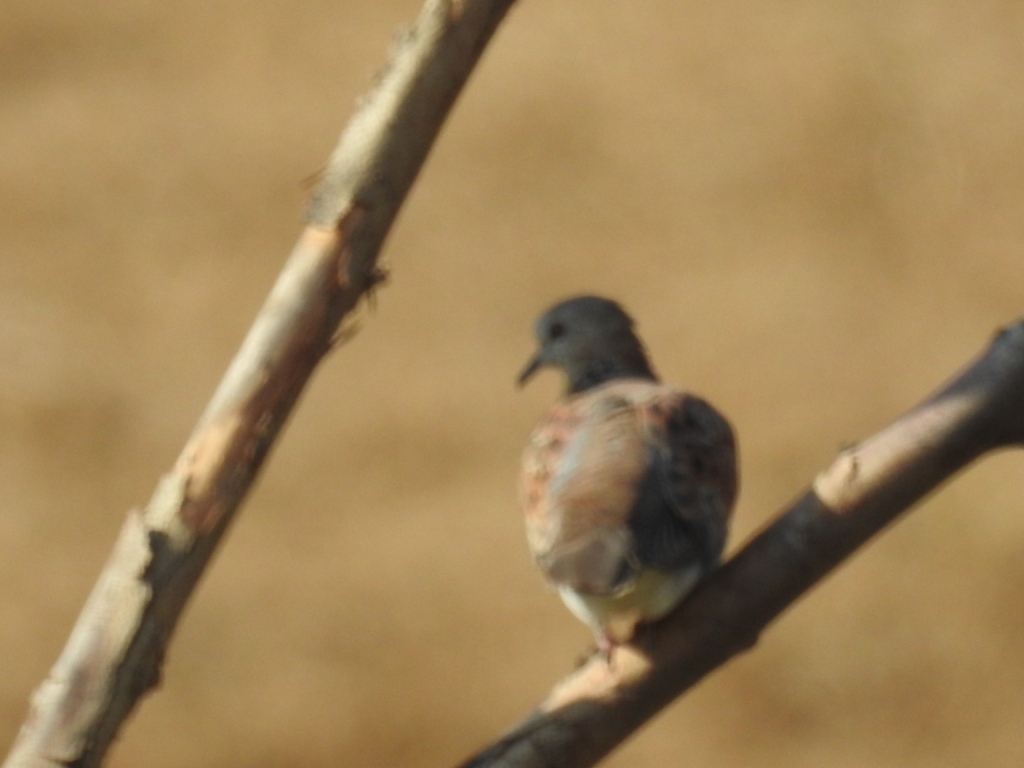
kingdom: Animalia
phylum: Chordata
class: Aves
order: Columbiformes
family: Columbidae
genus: Streptopelia
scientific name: Streptopelia turtur
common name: European turtle dove
